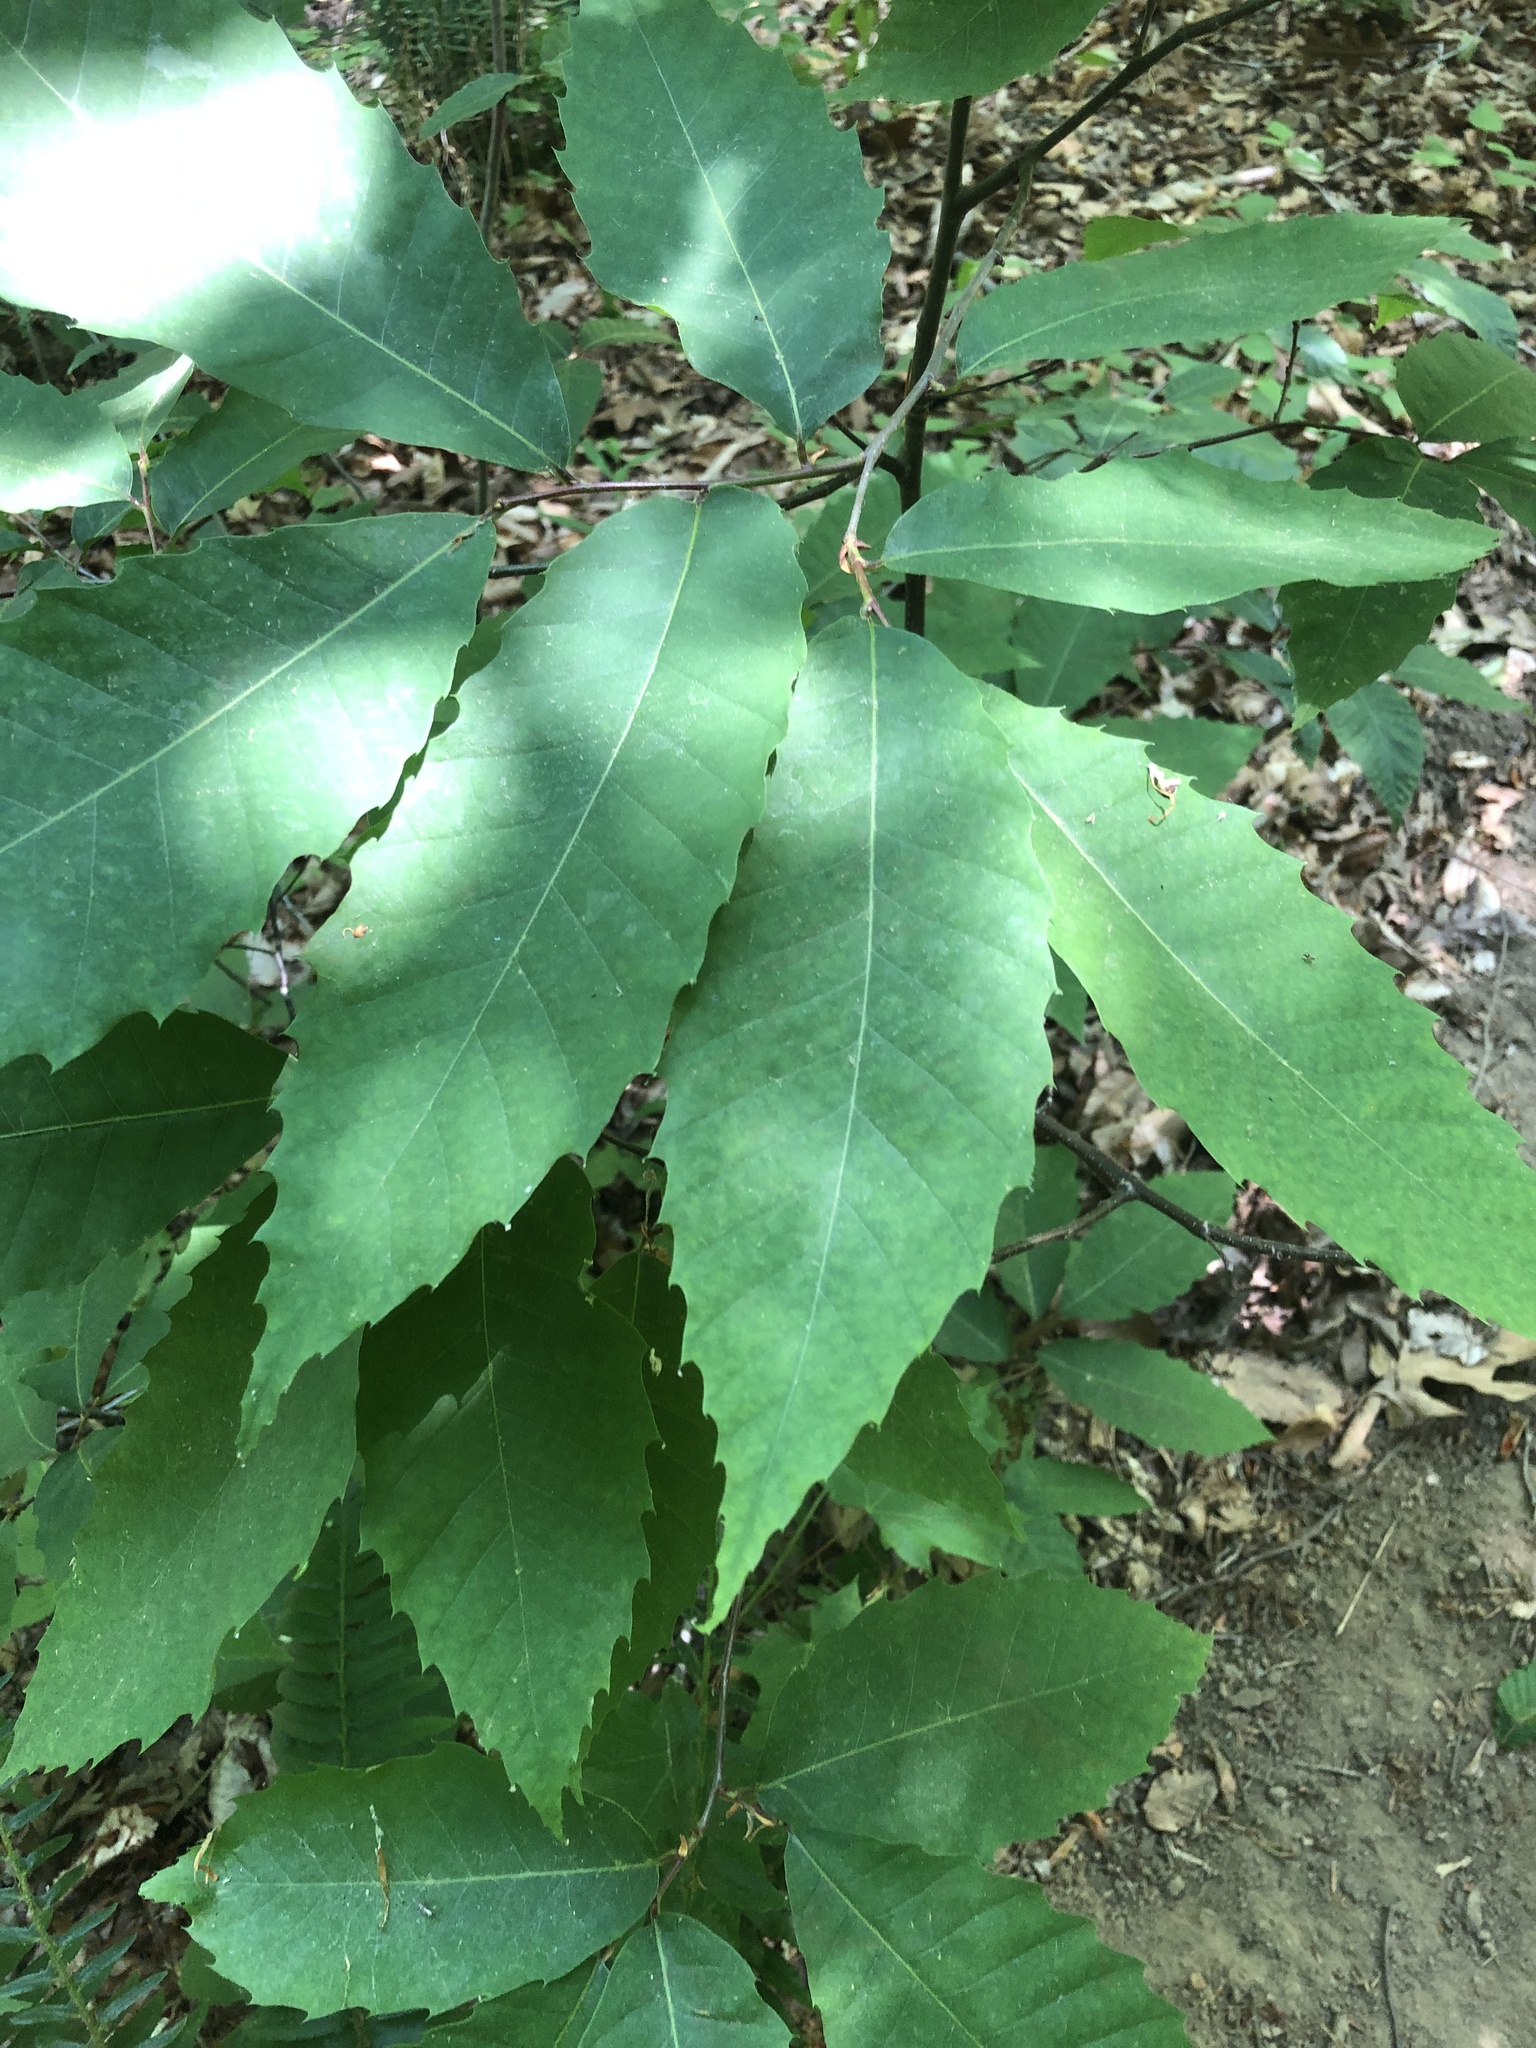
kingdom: Plantae
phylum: Tracheophyta
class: Magnoliopsida
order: Fagales
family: Fagaceae
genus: Castanea
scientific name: Castanea dentata
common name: American chestnut
